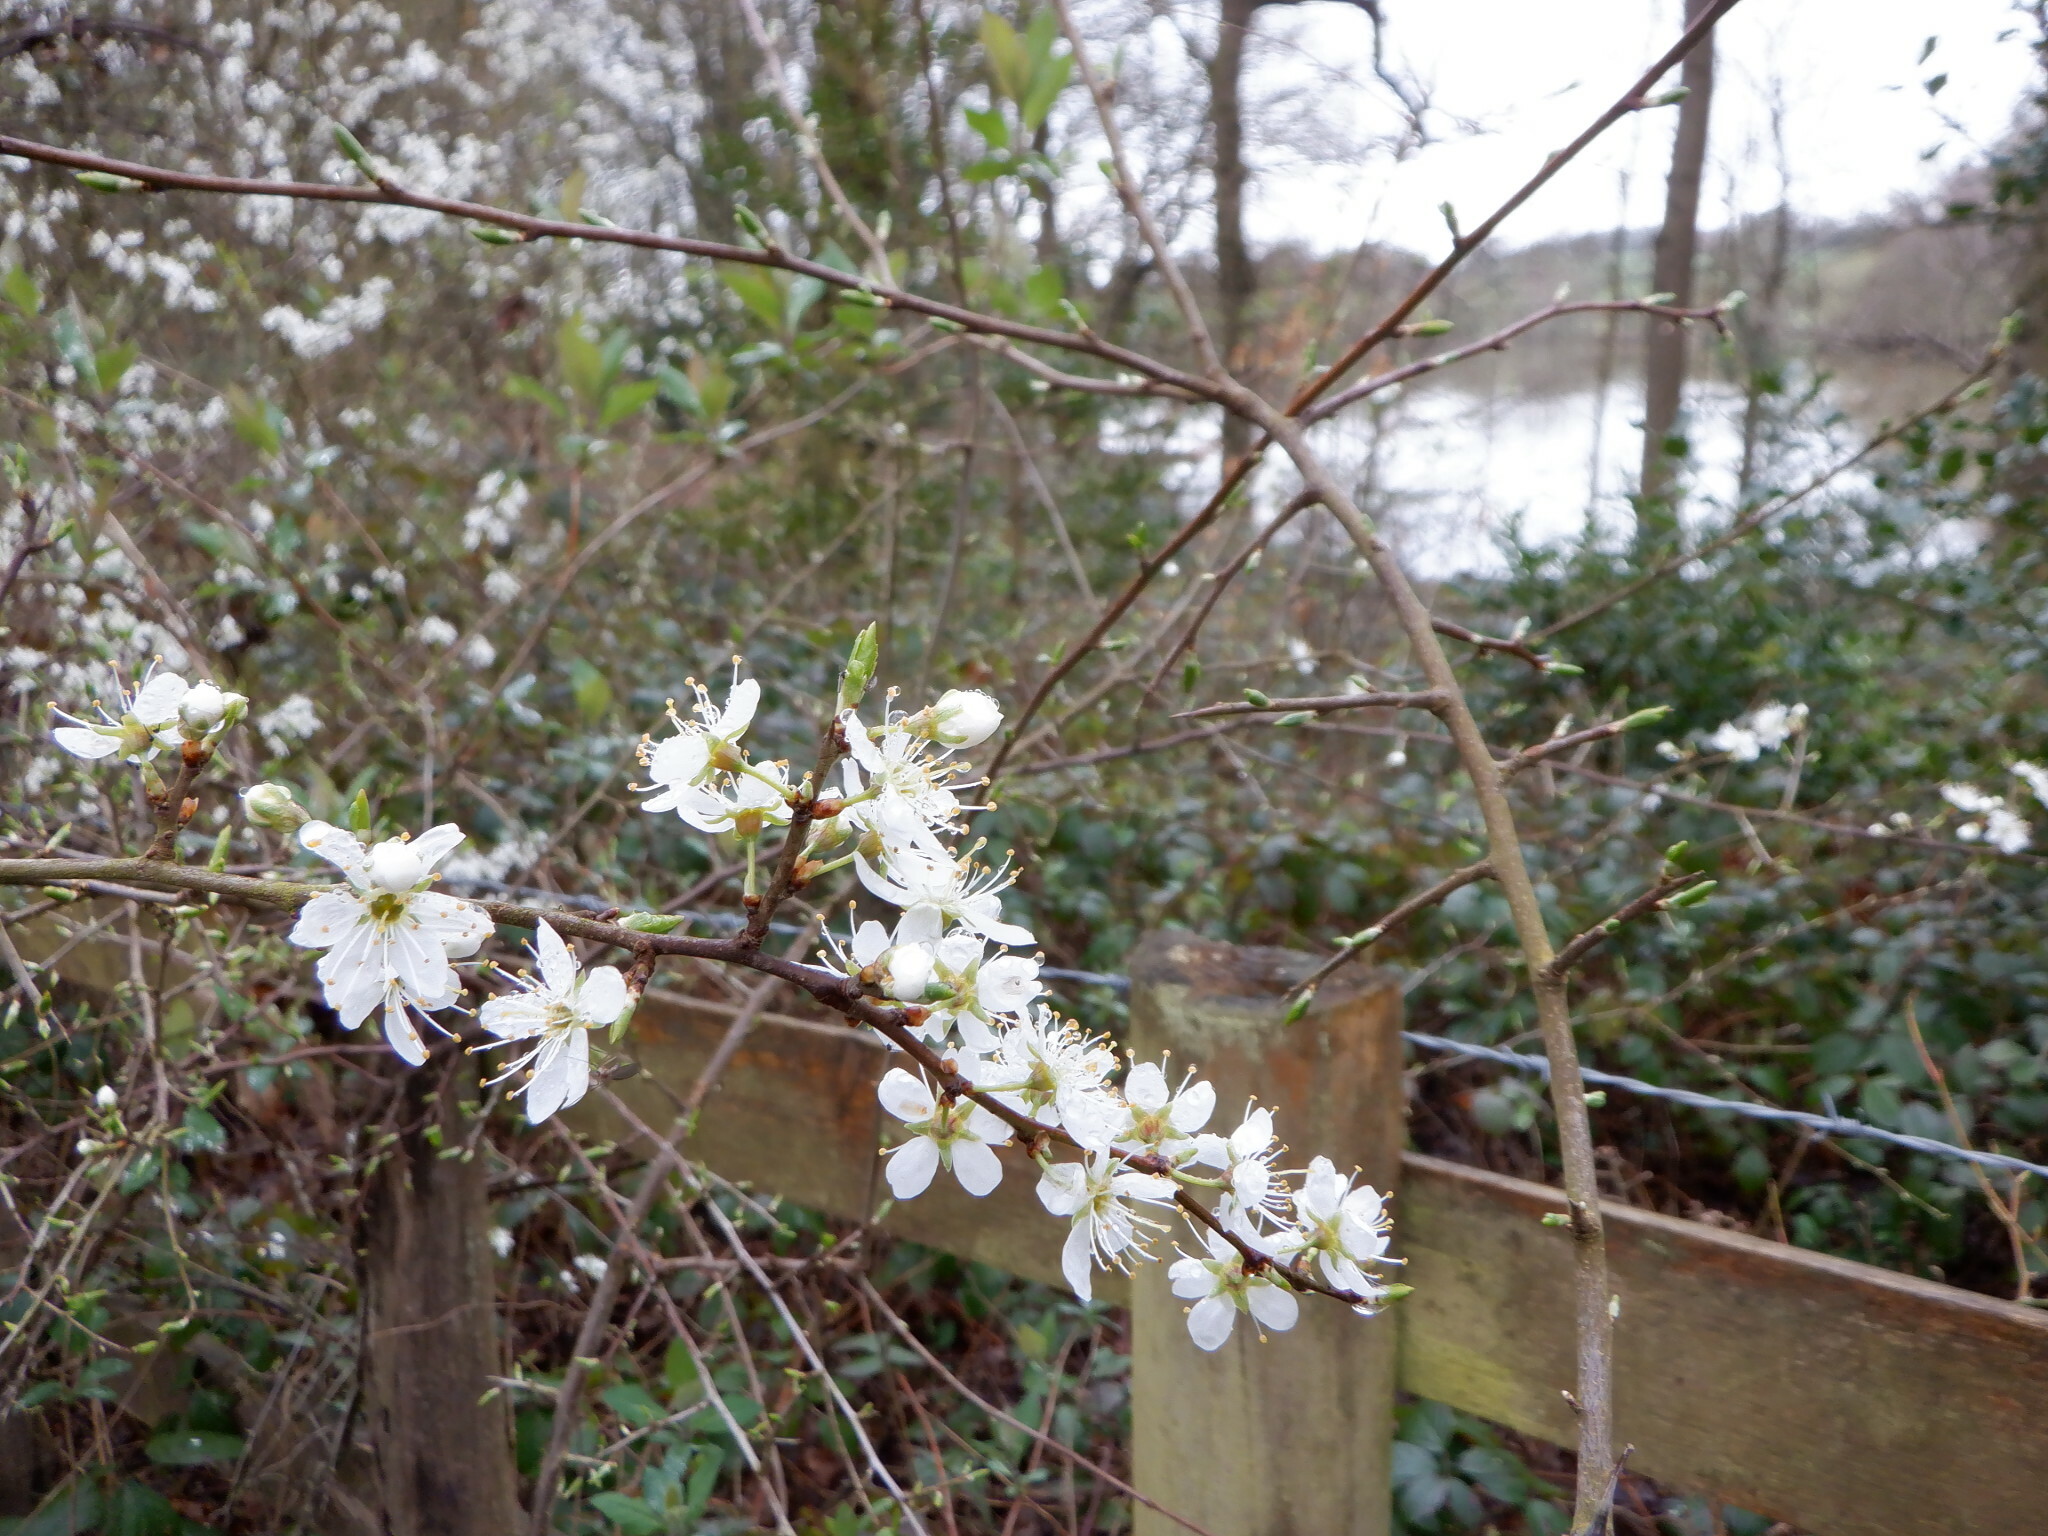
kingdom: Plantae
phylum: Tracheophyta
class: Magnoliopsida
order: Rosales
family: Rosaceae
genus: Prunus
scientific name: Prunus spinosa
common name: Blackthorn
